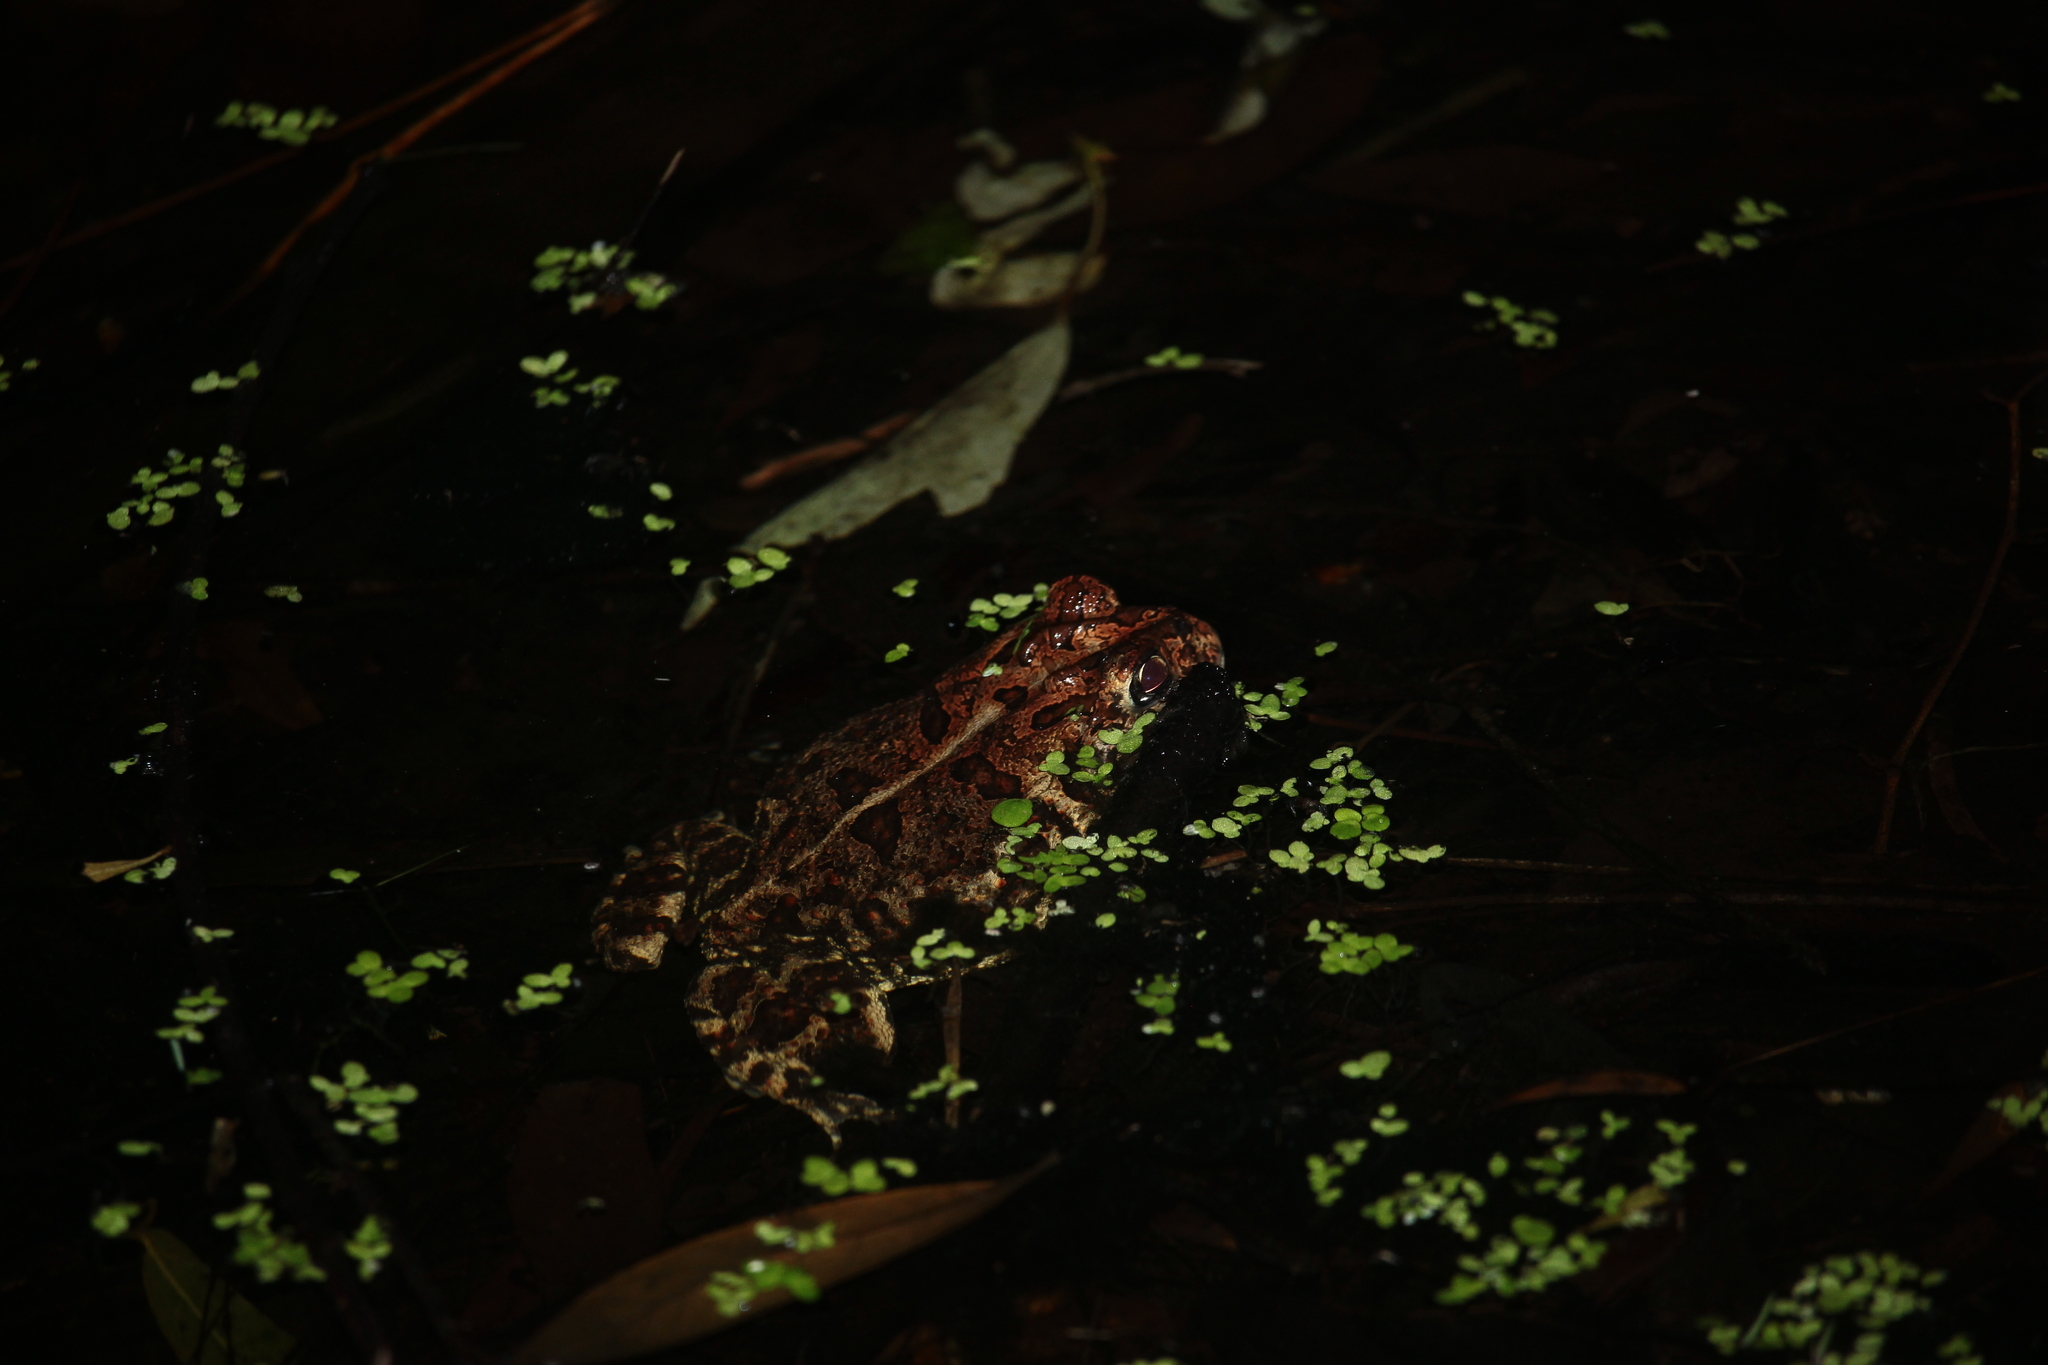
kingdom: Animalia
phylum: Chordata
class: Amphibia
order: Anura
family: Bufonidae
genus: Anaxyrus
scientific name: Anaxyrus terrestris
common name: Southern toad
